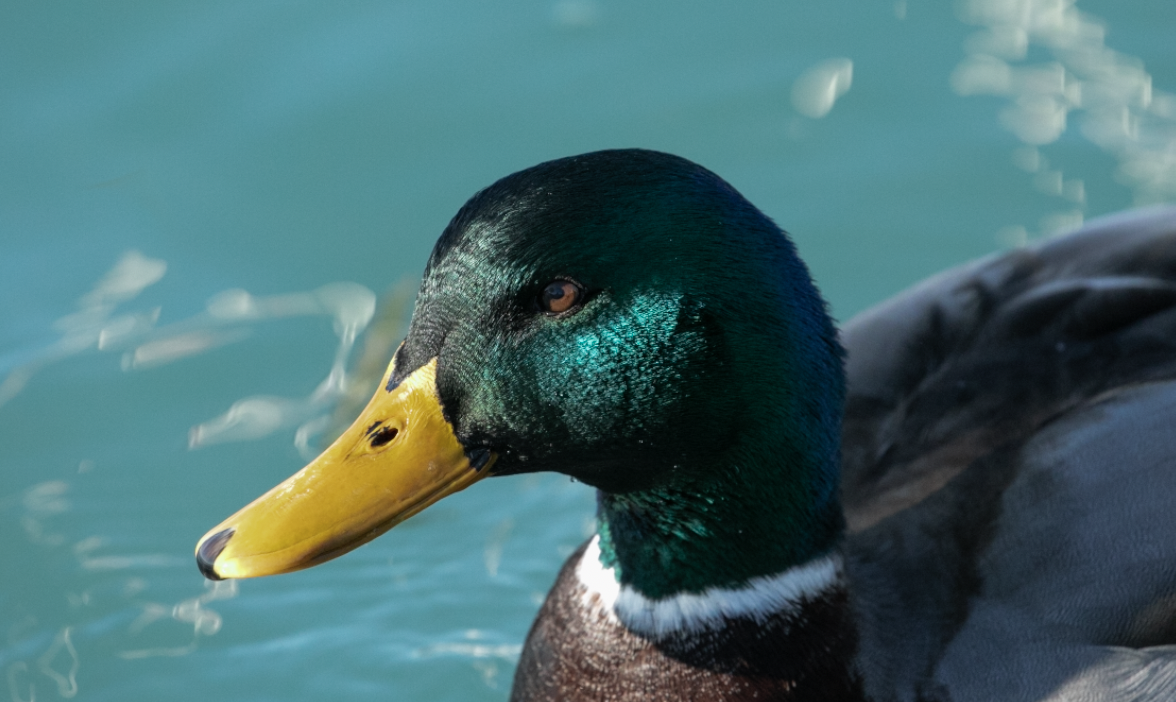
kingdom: Animalia
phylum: Chordata
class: Aves
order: Anseriformes
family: Anatidae
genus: Anas
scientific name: Anas platyrhynchos
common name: Mallard
